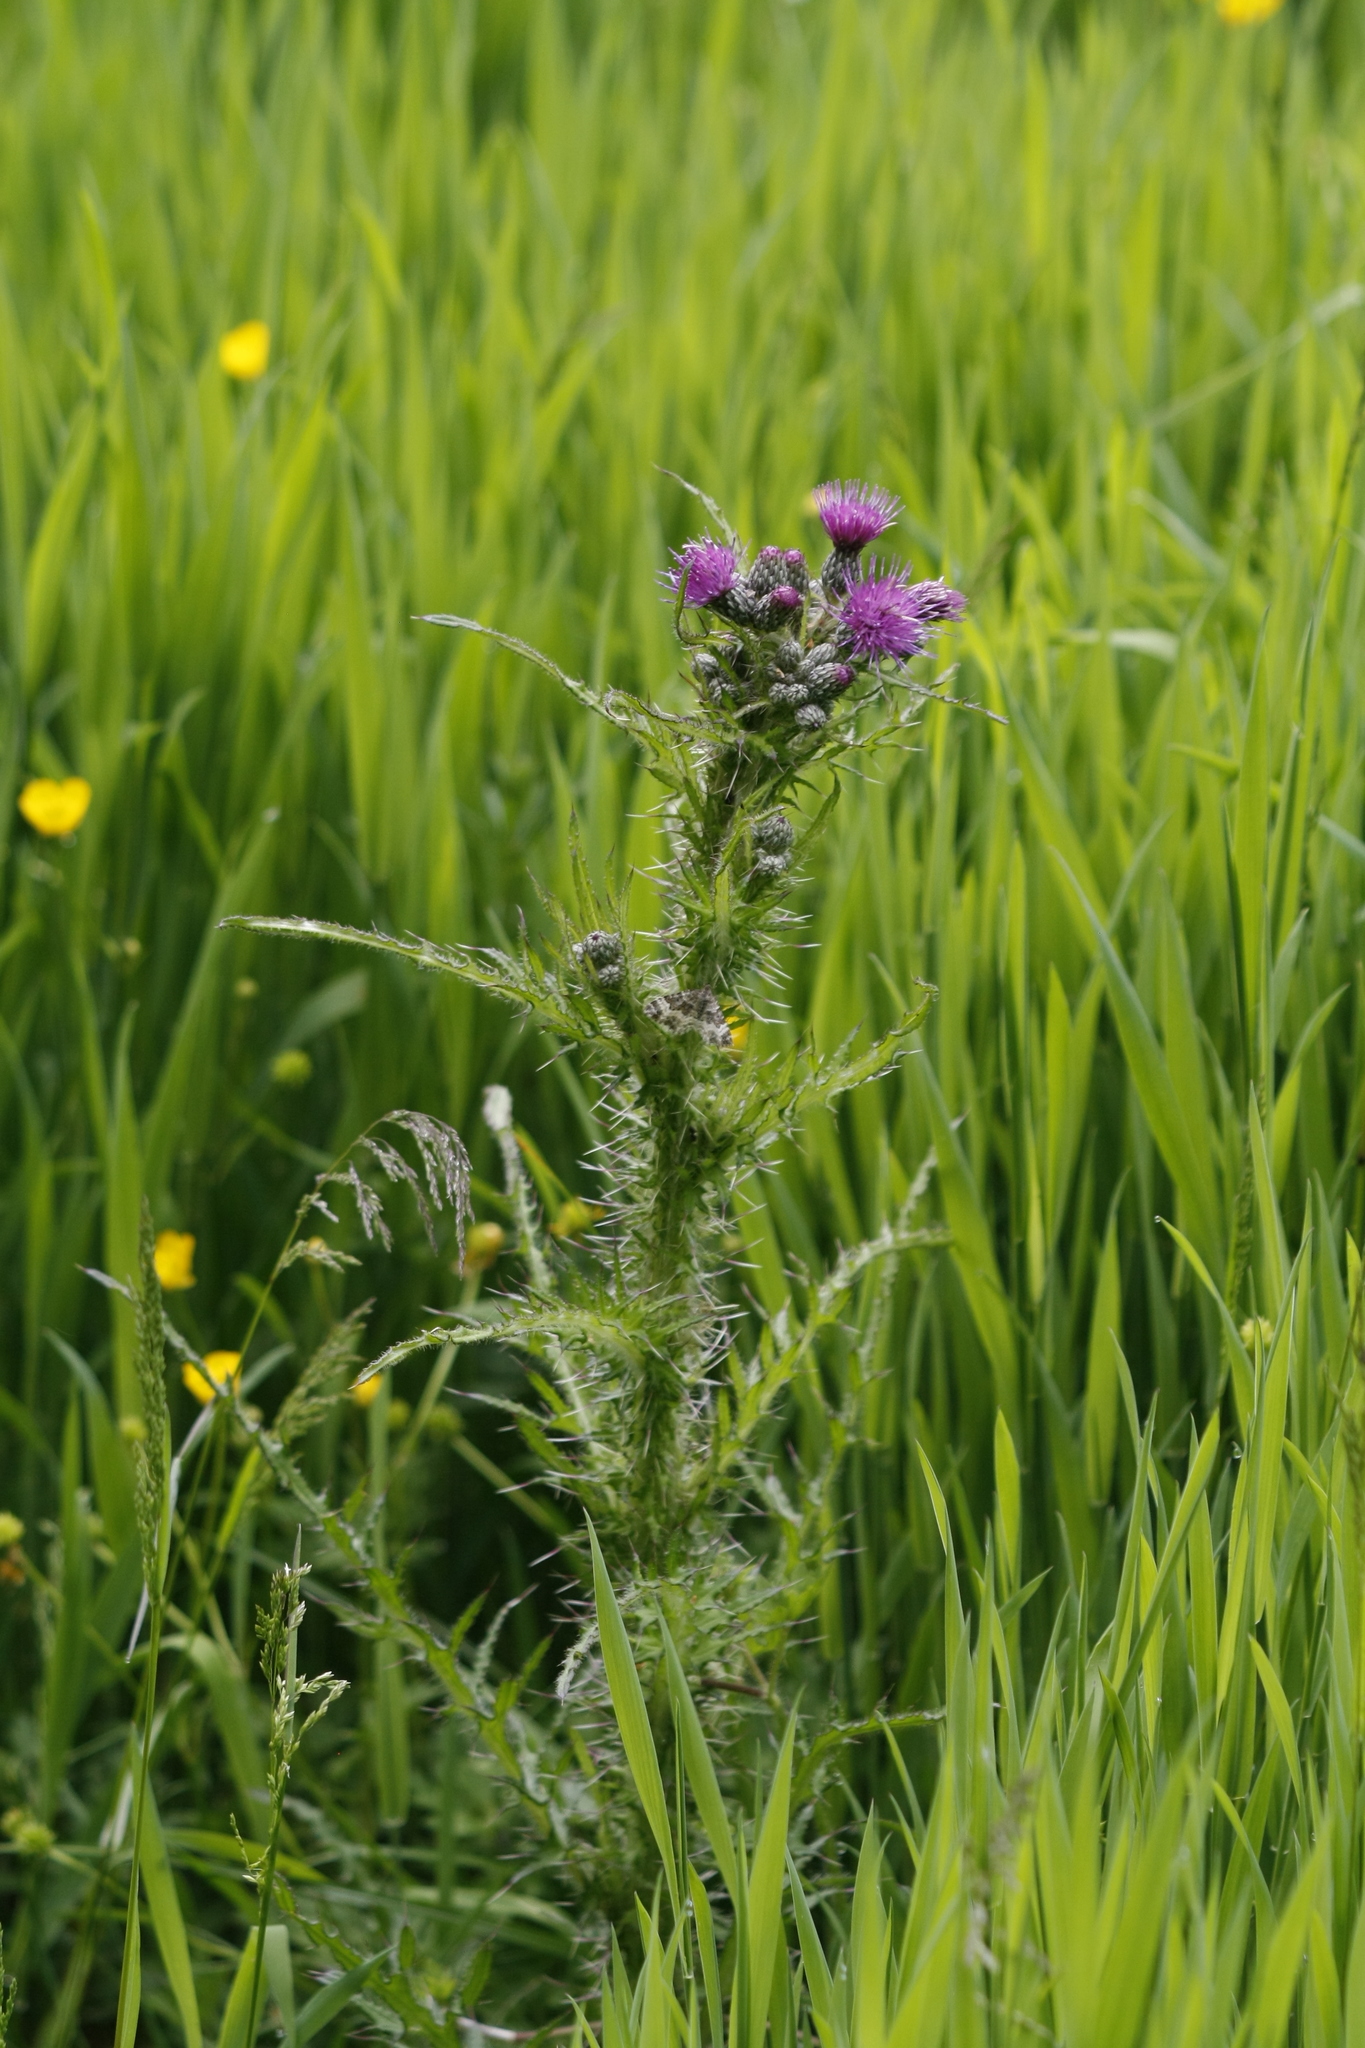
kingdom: Plantae
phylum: Tracheophyta
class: Magnoliopsida
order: Asterales
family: Asteraceae
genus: Cirsium
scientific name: Cirsium palustre
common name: Marsh thistle
